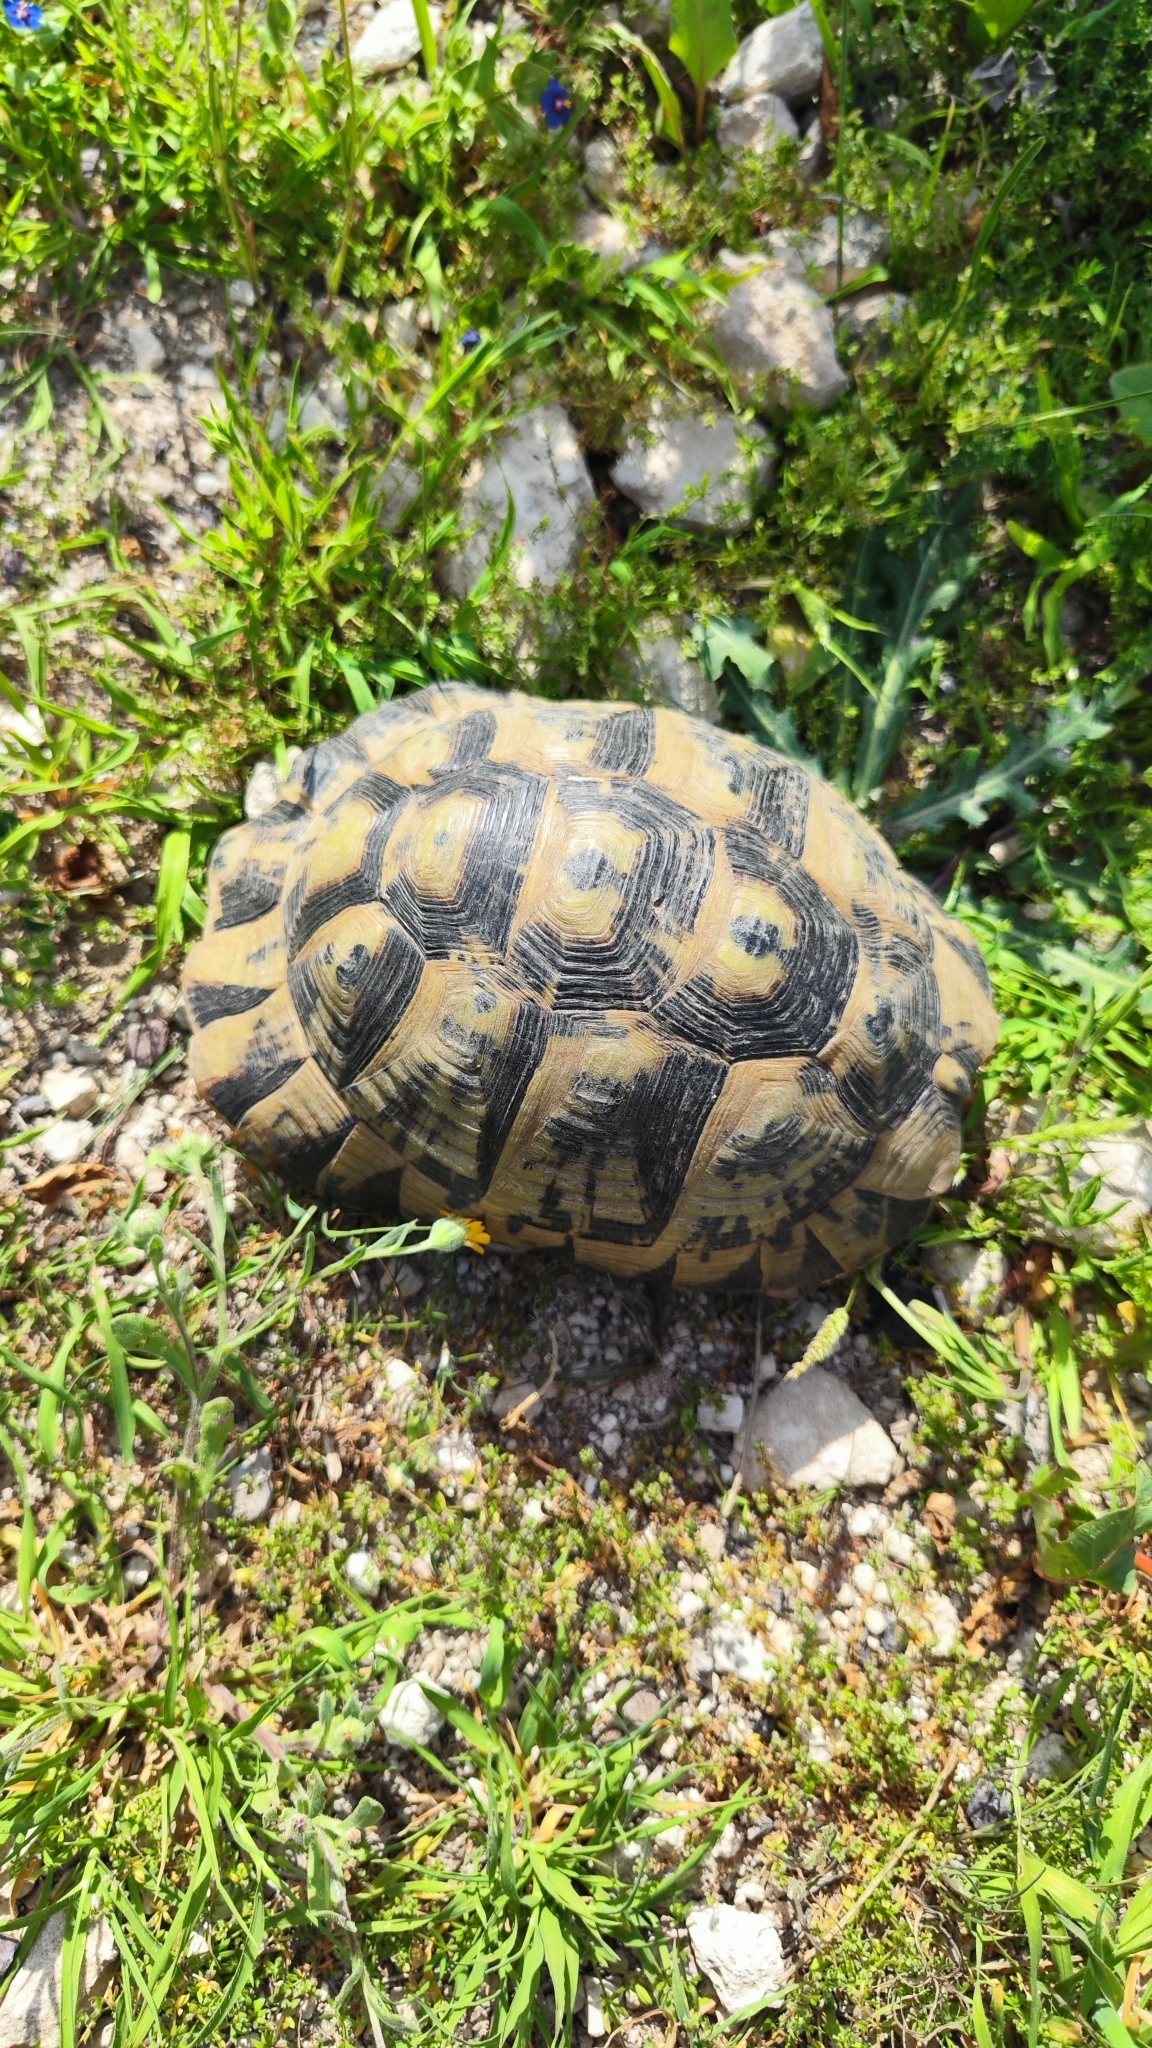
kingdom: Animalia
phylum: Chordata
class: Testudines
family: Testudinidae
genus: Testudo
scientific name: Testudo graeca
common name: Common tortoise
